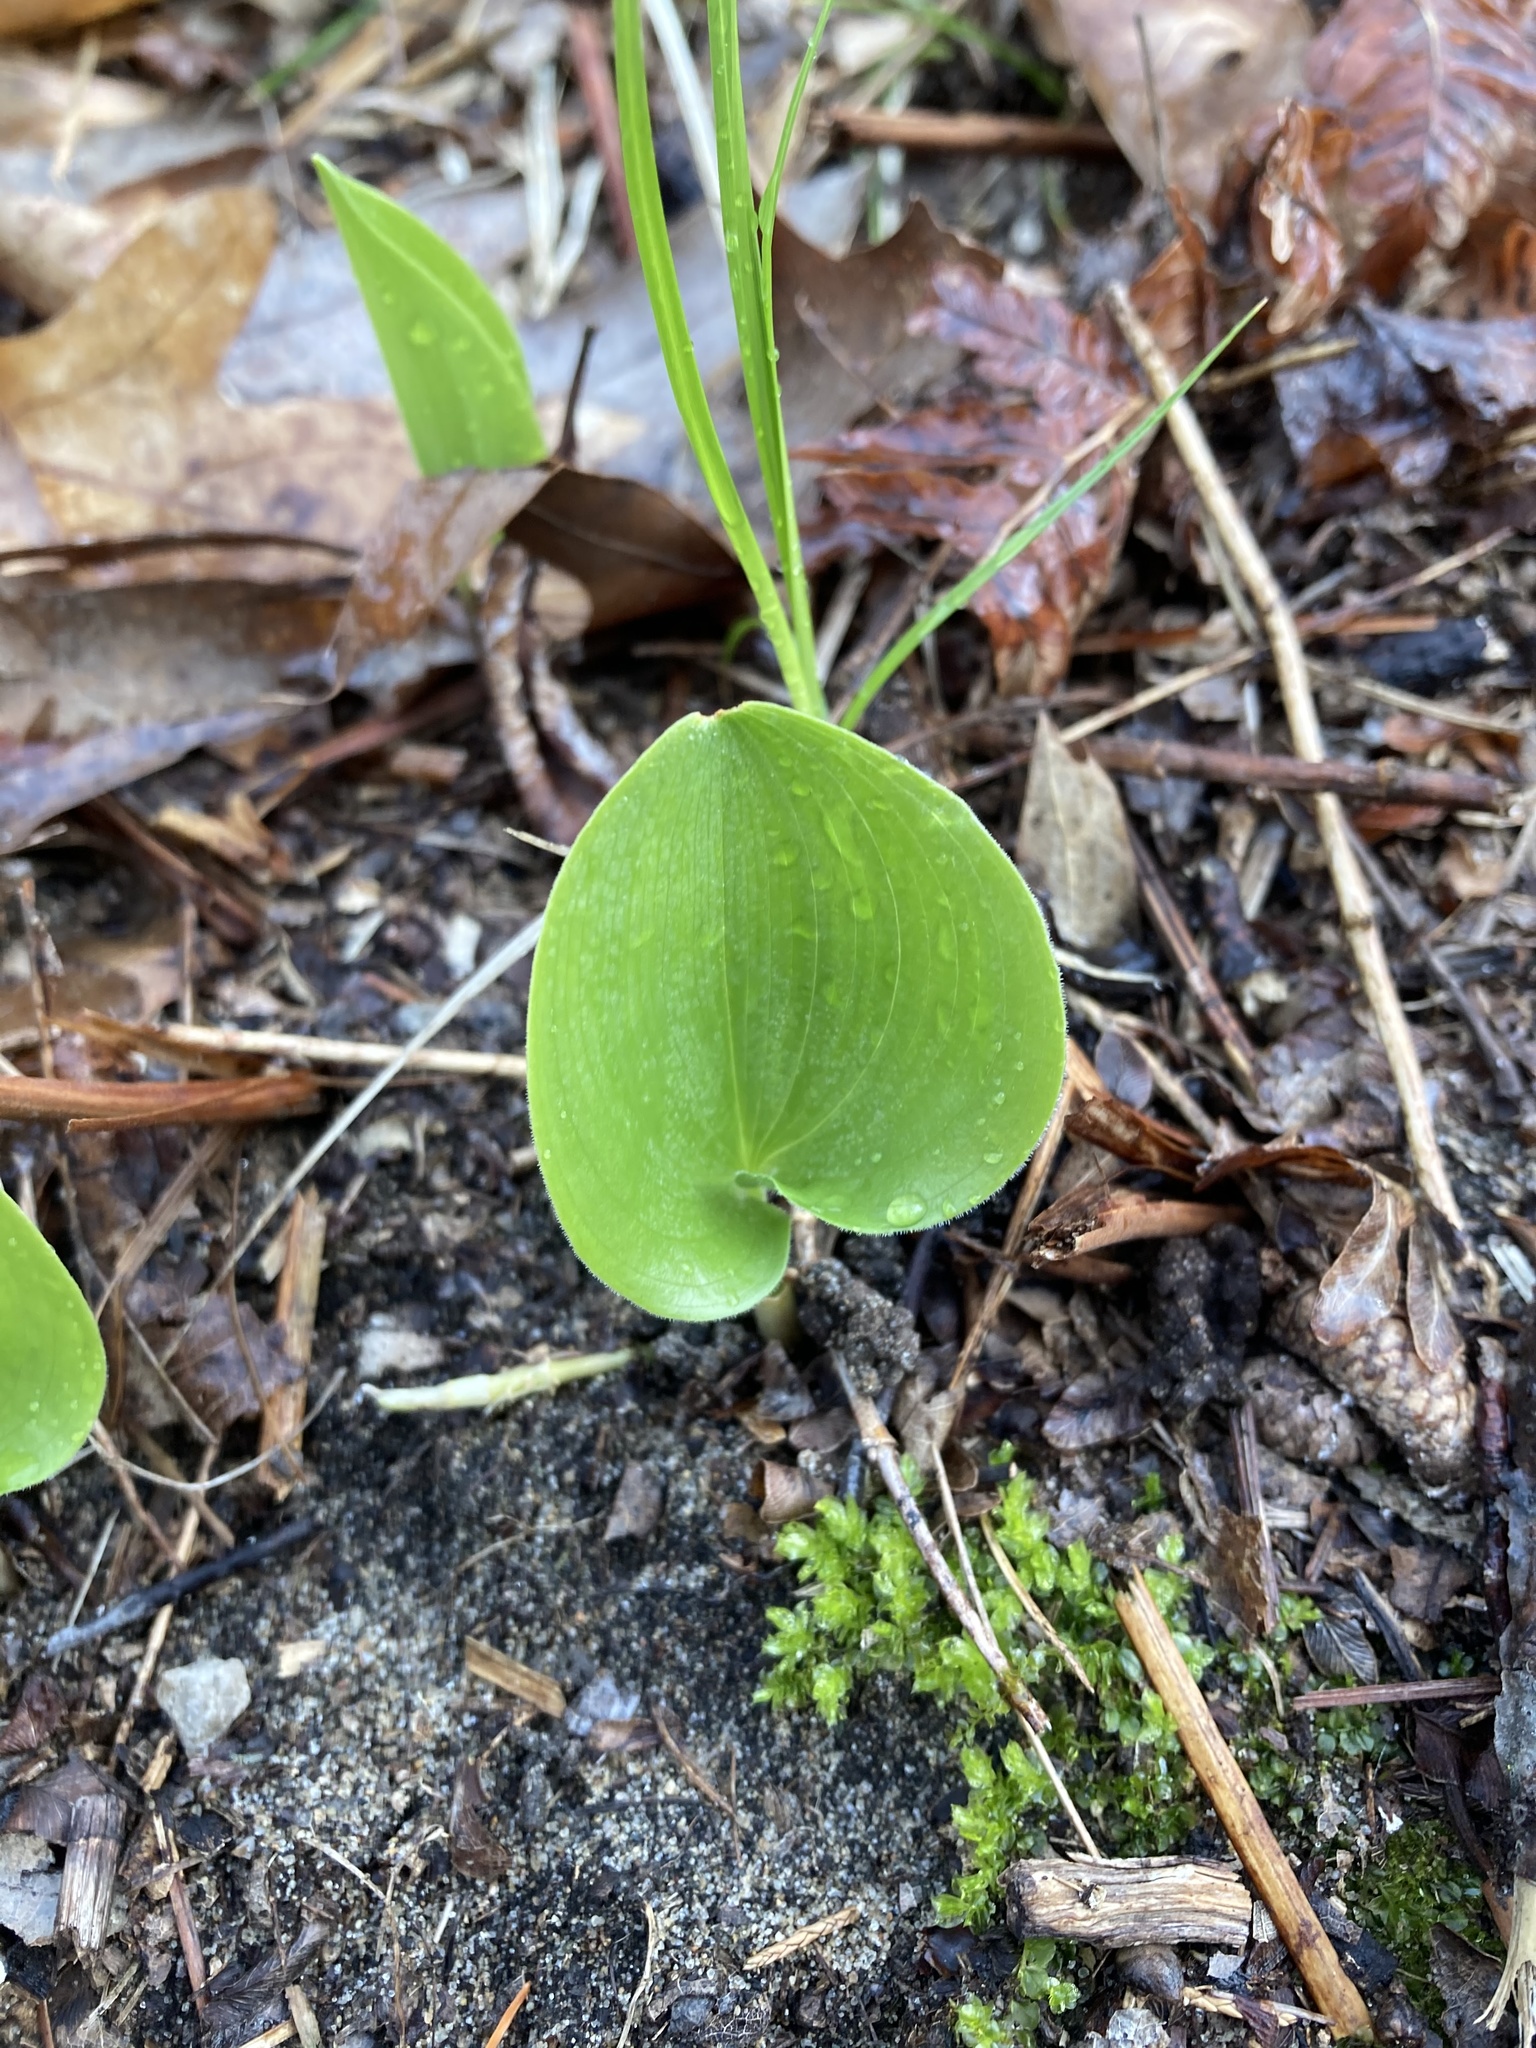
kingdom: Plantae
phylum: Tracheophyta
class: Liliopsida
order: Asparagales
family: Asparagaceae
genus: Maianthemum
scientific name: Maianthemum canadense
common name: False lily-of-the-valley
